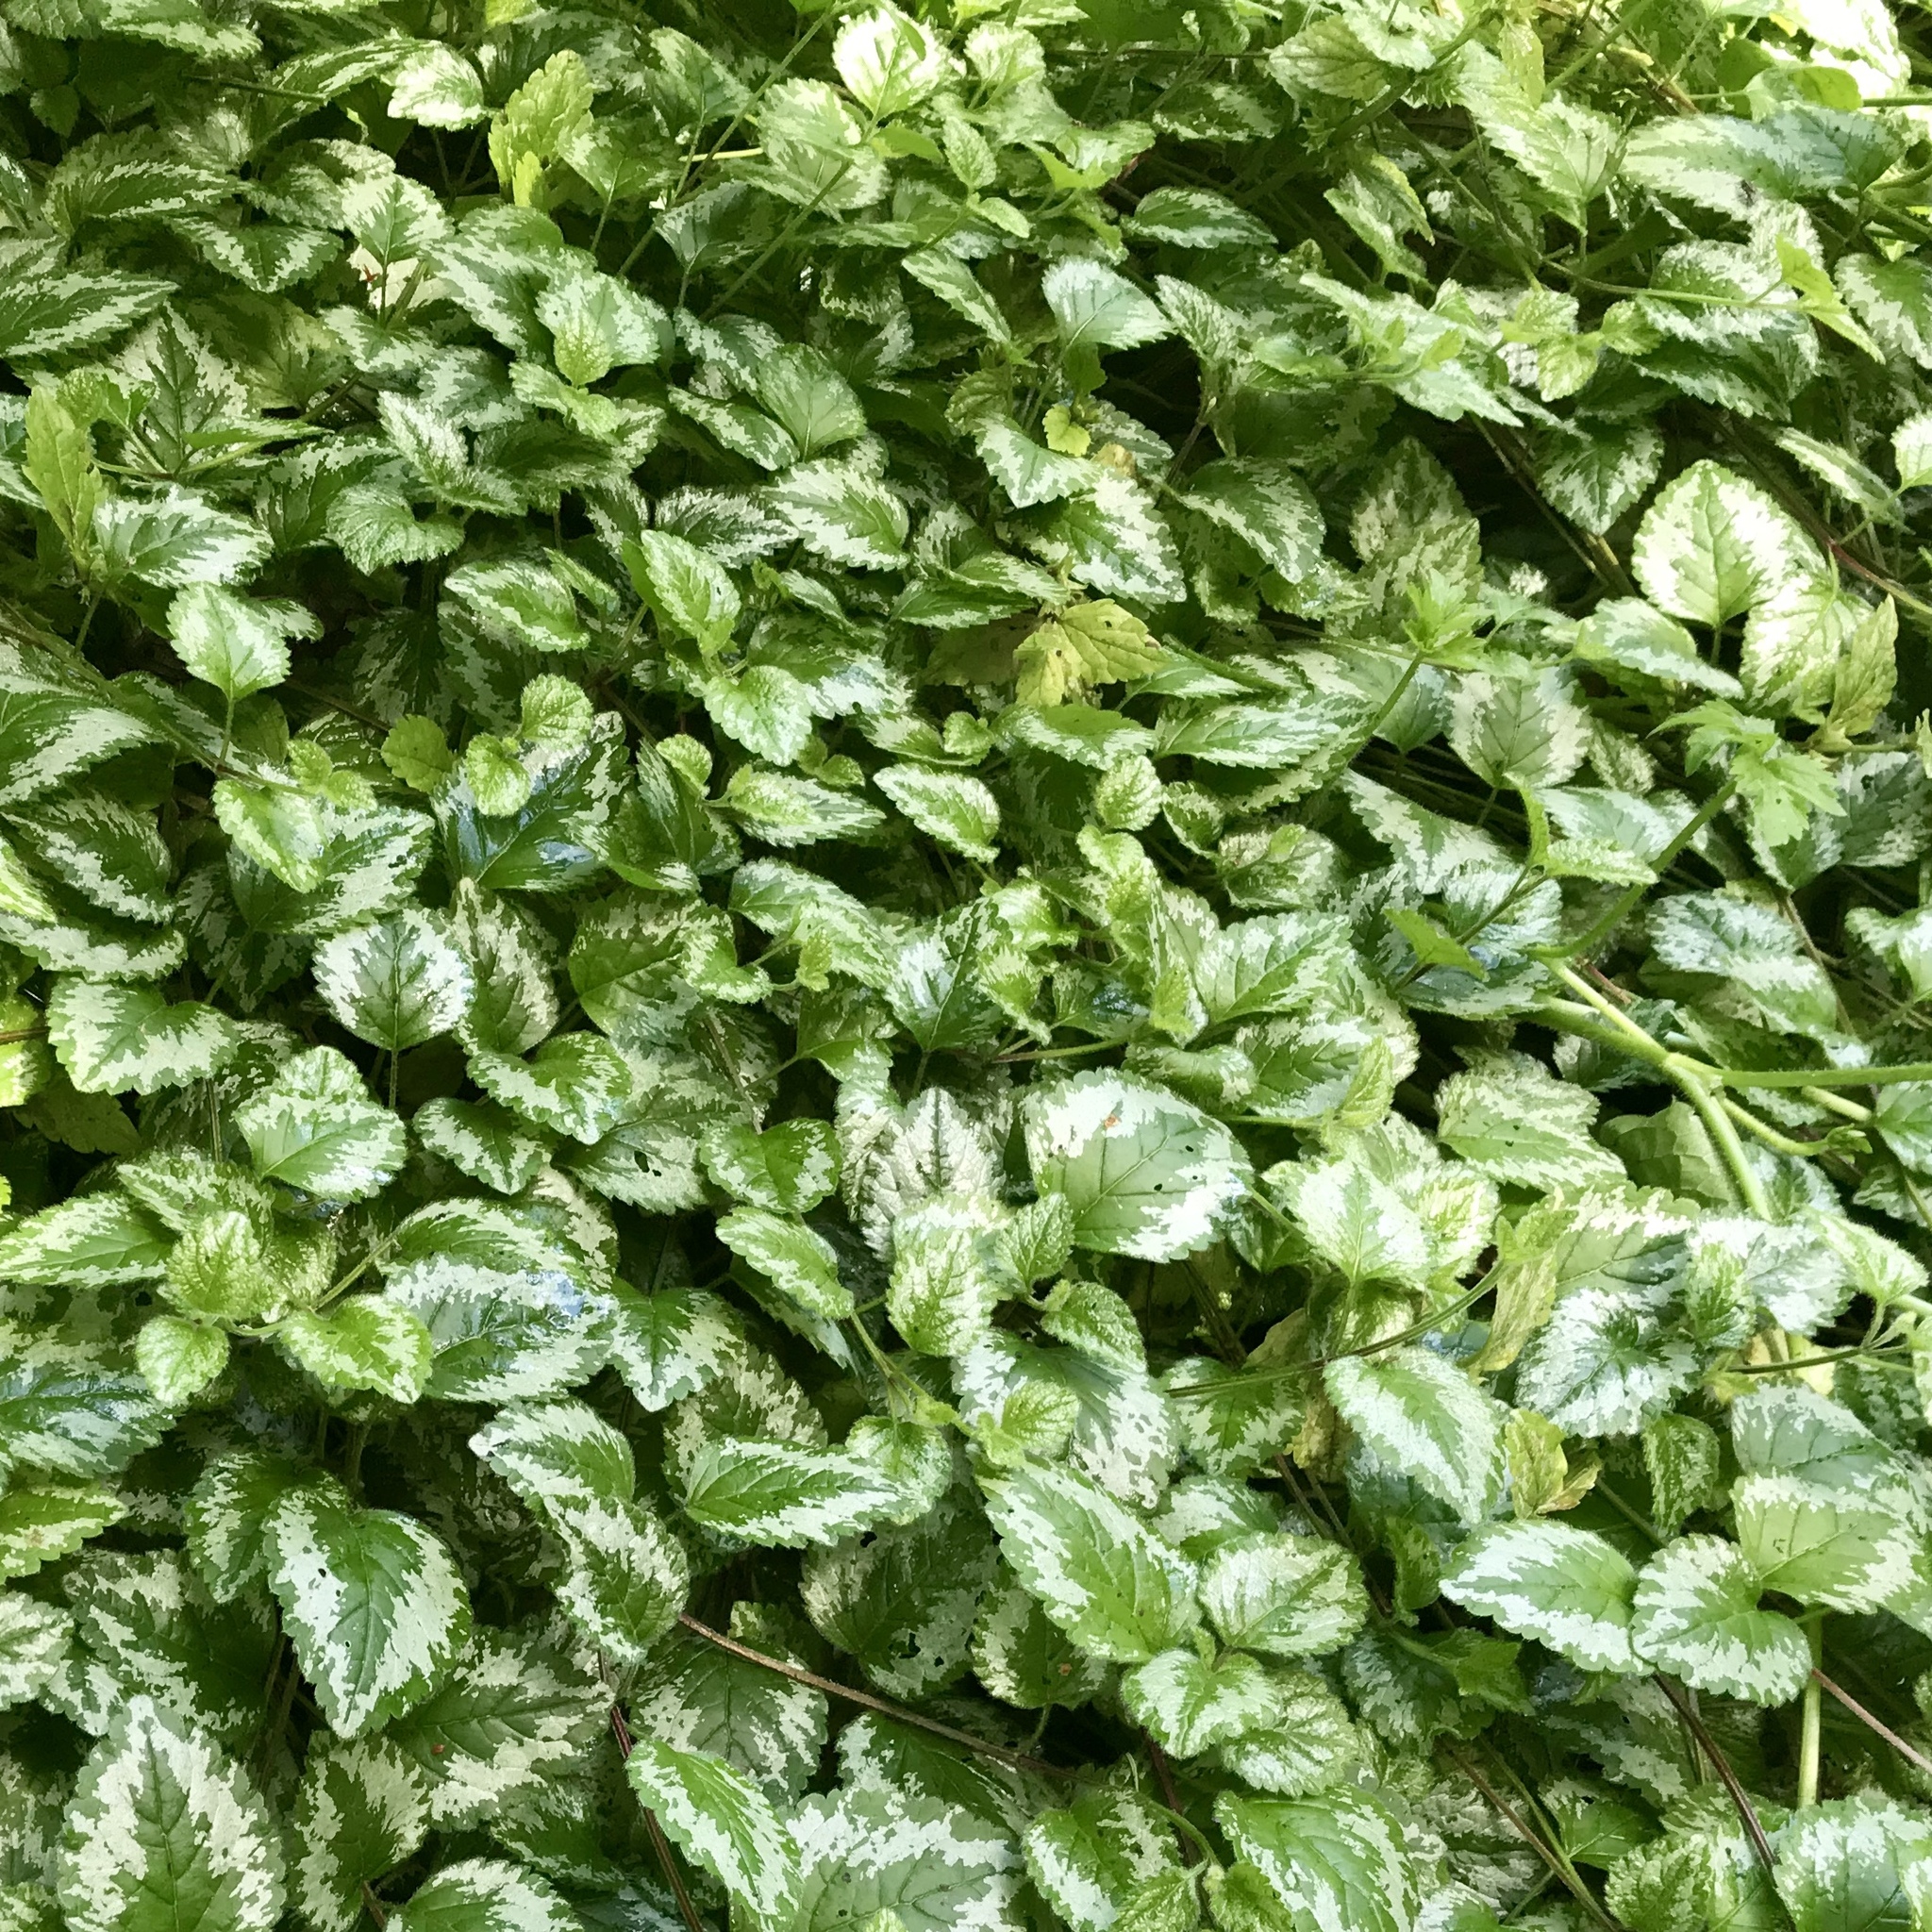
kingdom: Plantae
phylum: Tracheophyta
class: Magnoliopsida
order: Lamiales
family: Lamiaceae
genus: Lamium
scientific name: Lamium galeobdolon
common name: Yellow archangel
